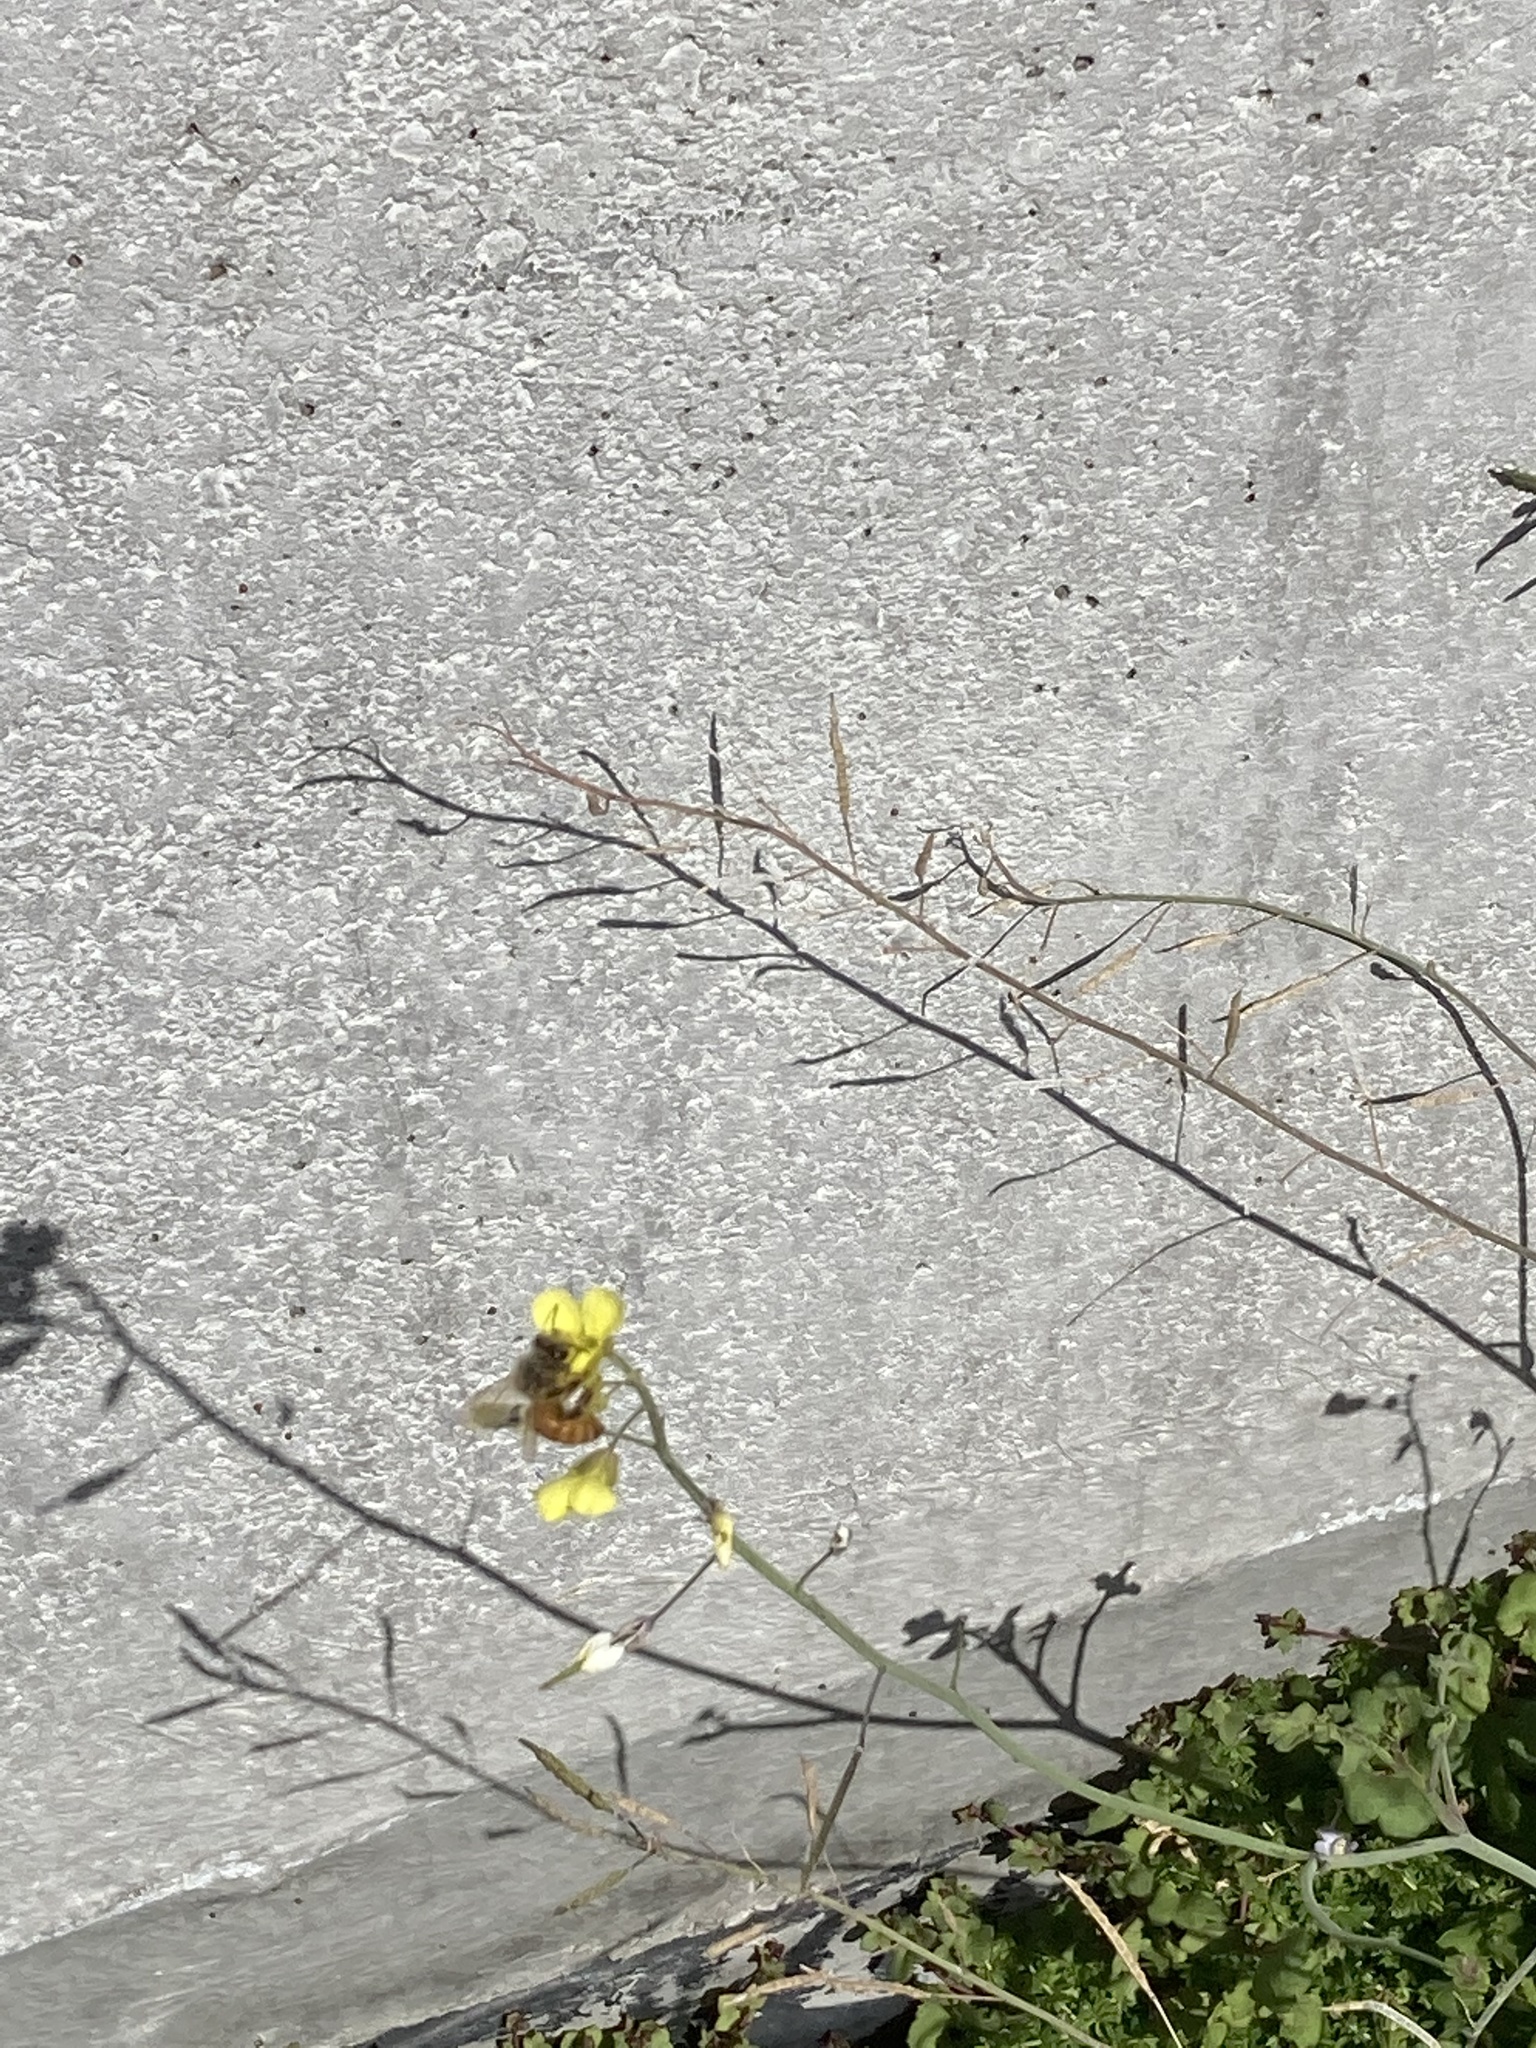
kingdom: Animalia
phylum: Arthropoda
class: Insecta
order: Hymenoptera
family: Apidae
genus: Apis
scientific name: Apis mellifera
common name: Honey bee
